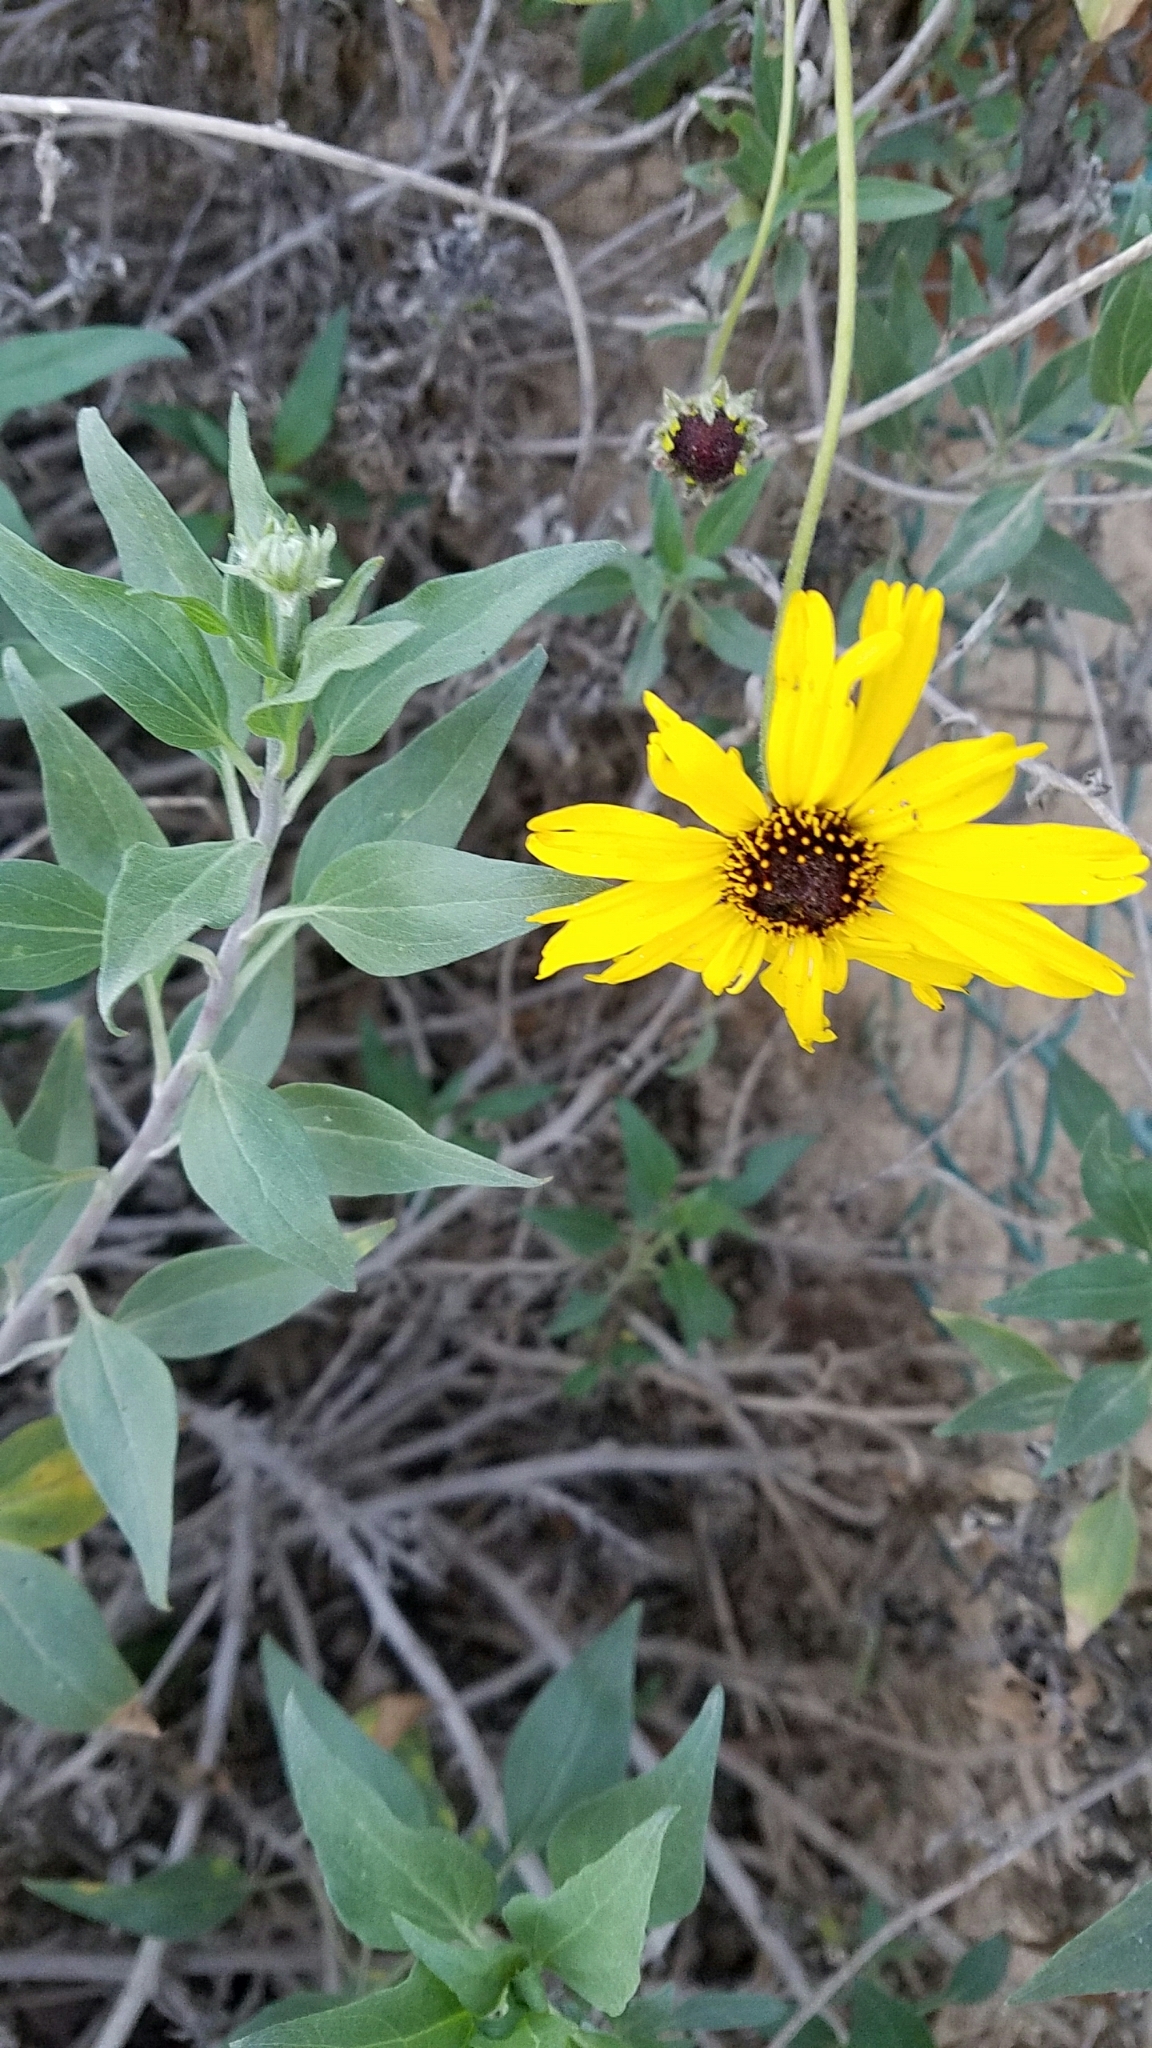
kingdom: Plantae
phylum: Tracheophyta
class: Magnoliopsida
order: Asterales
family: Asteraceae
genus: Encelia
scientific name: Encelia californica
